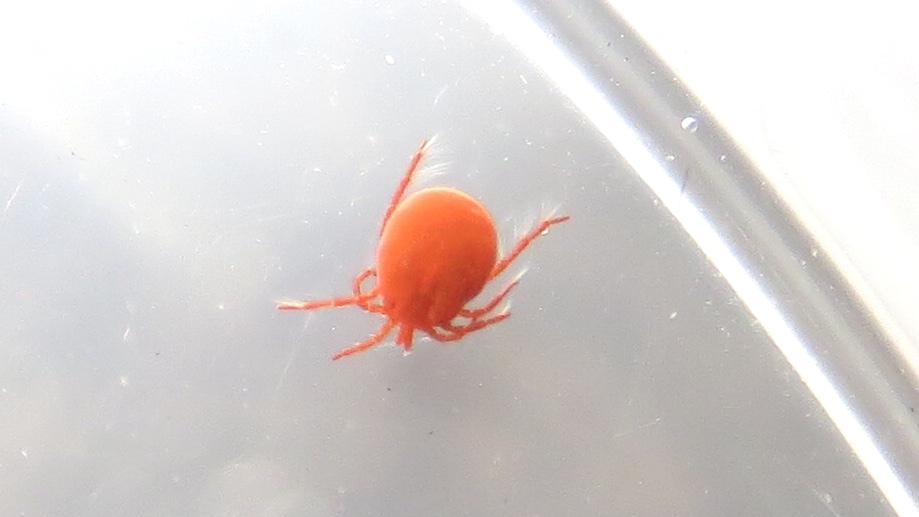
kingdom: Animalia
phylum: Arthropoda
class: Arachnida
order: Trombidiformes
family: Hydryphantidae
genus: Hydryphantes
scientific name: Hydryphantes
